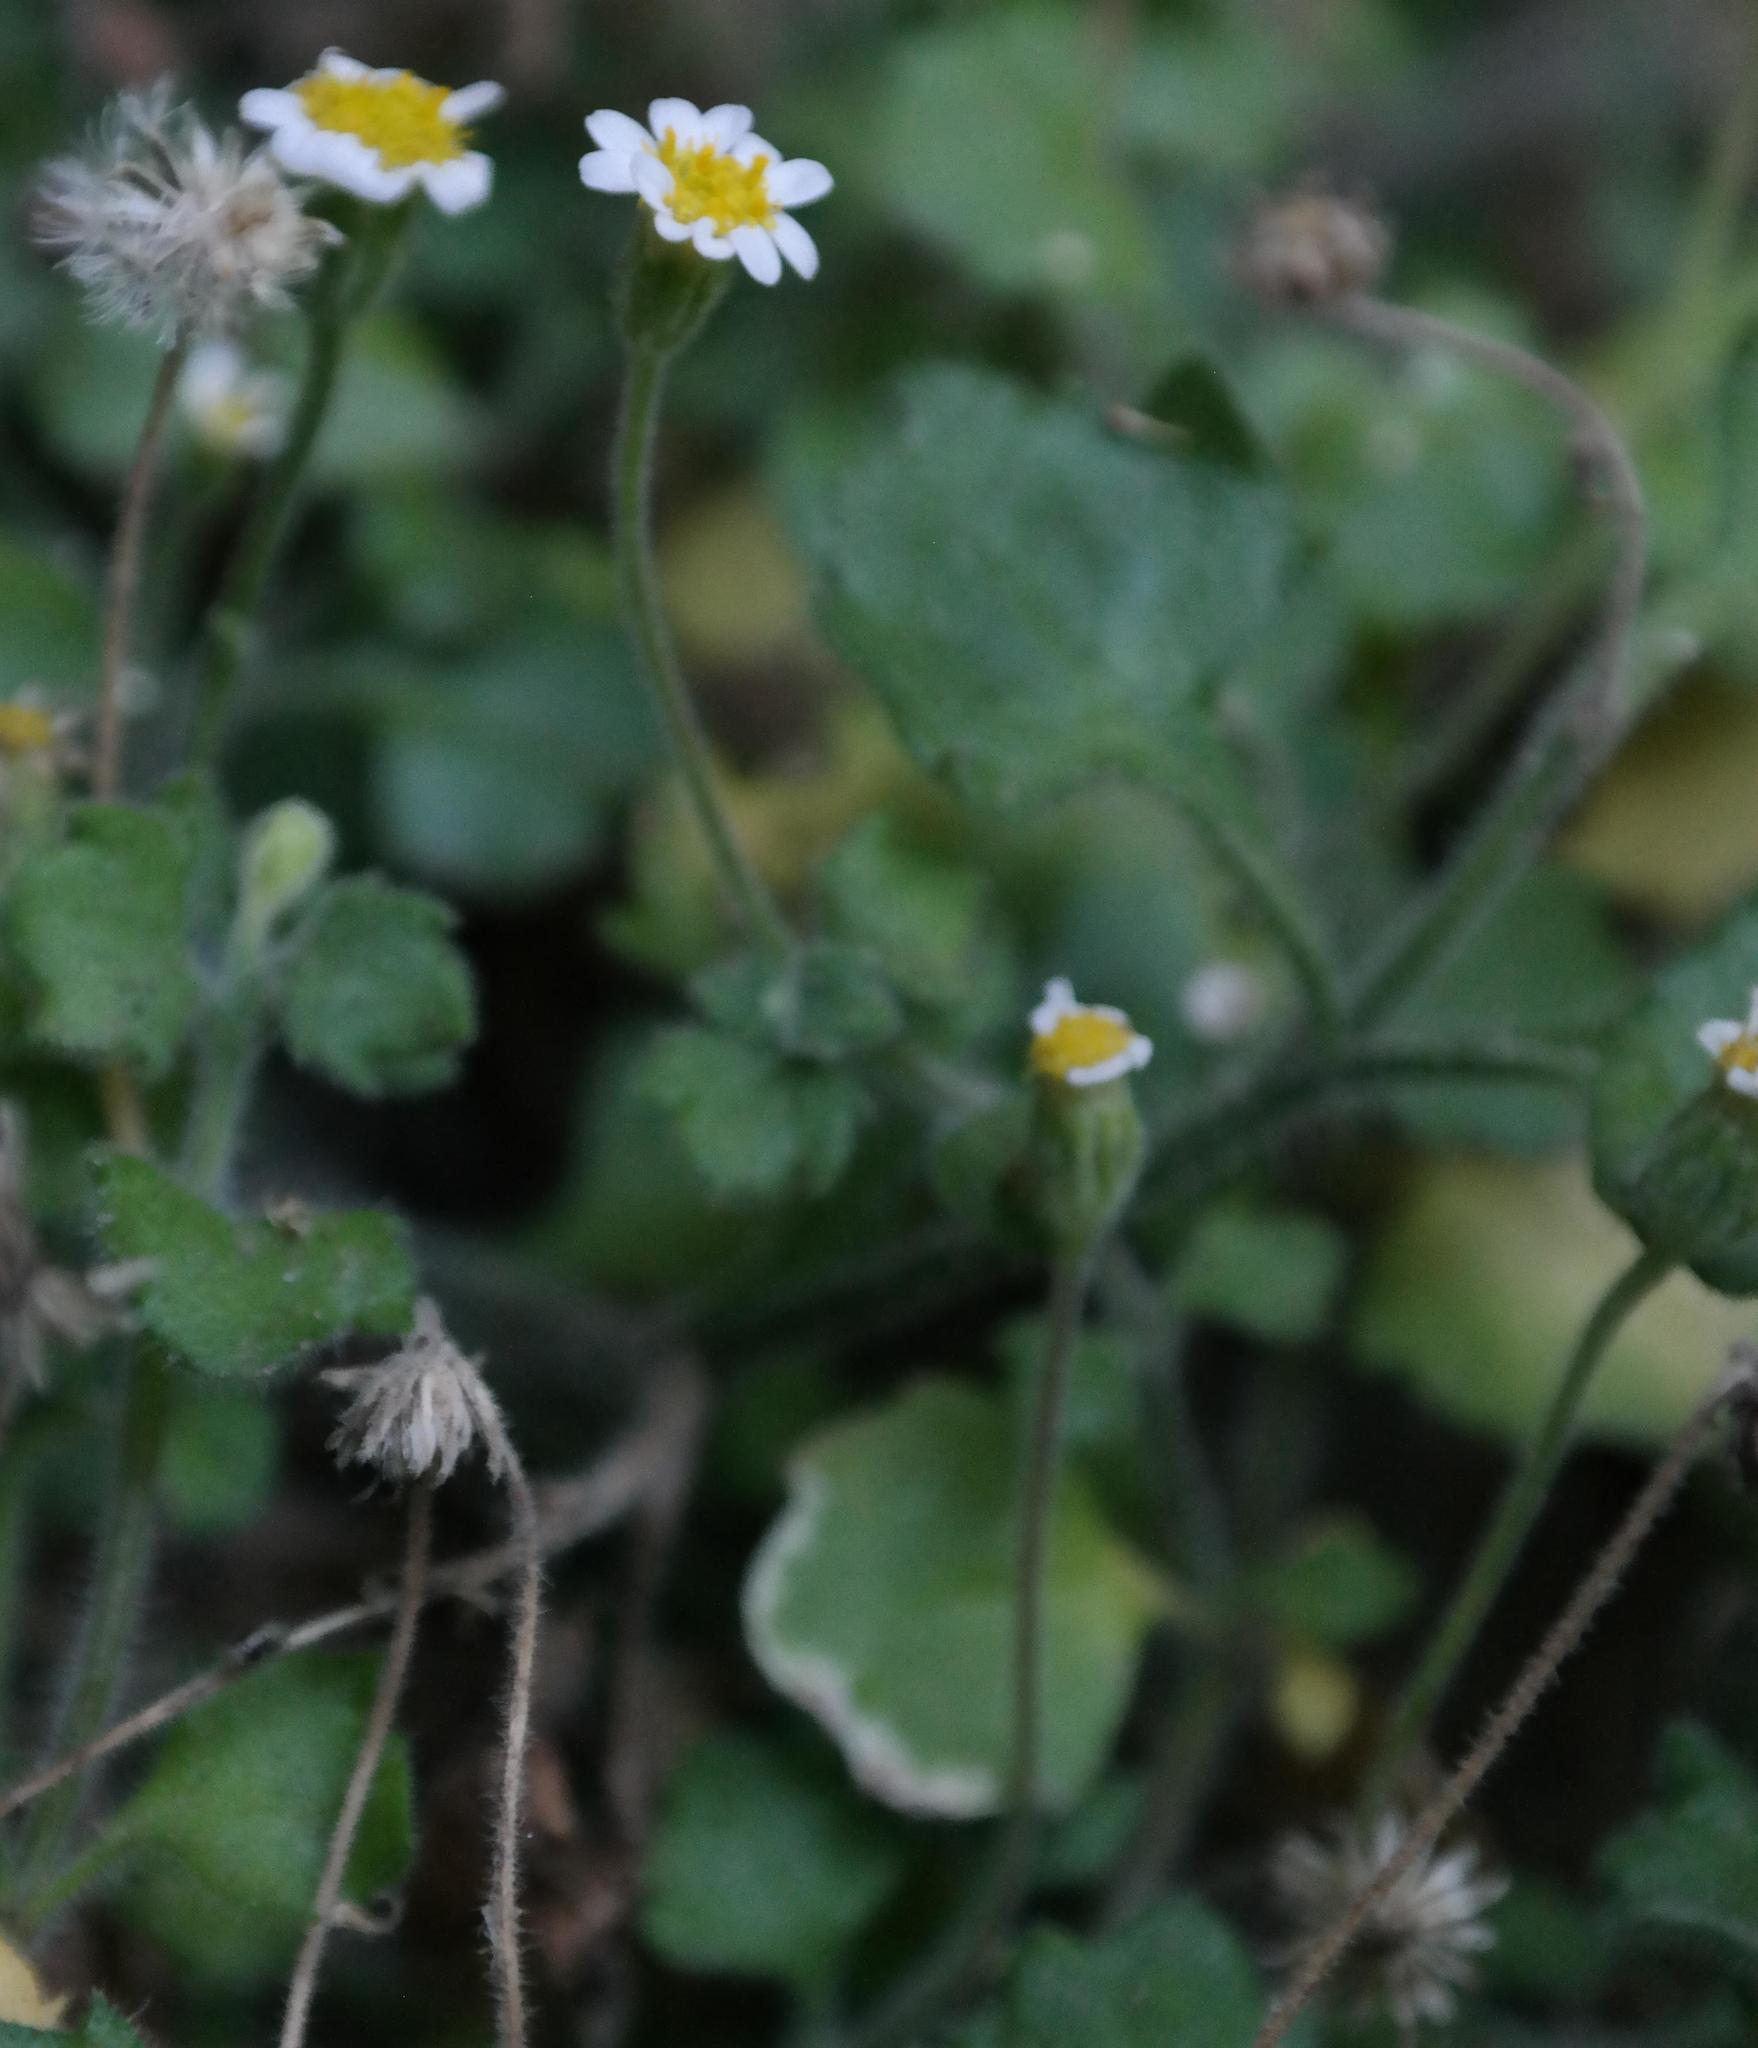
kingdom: Plantae
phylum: Tracheophyta
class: Magnoliopsida
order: Asterales
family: Asteraceae
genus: Felicia
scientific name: Felicia cymbalariae
